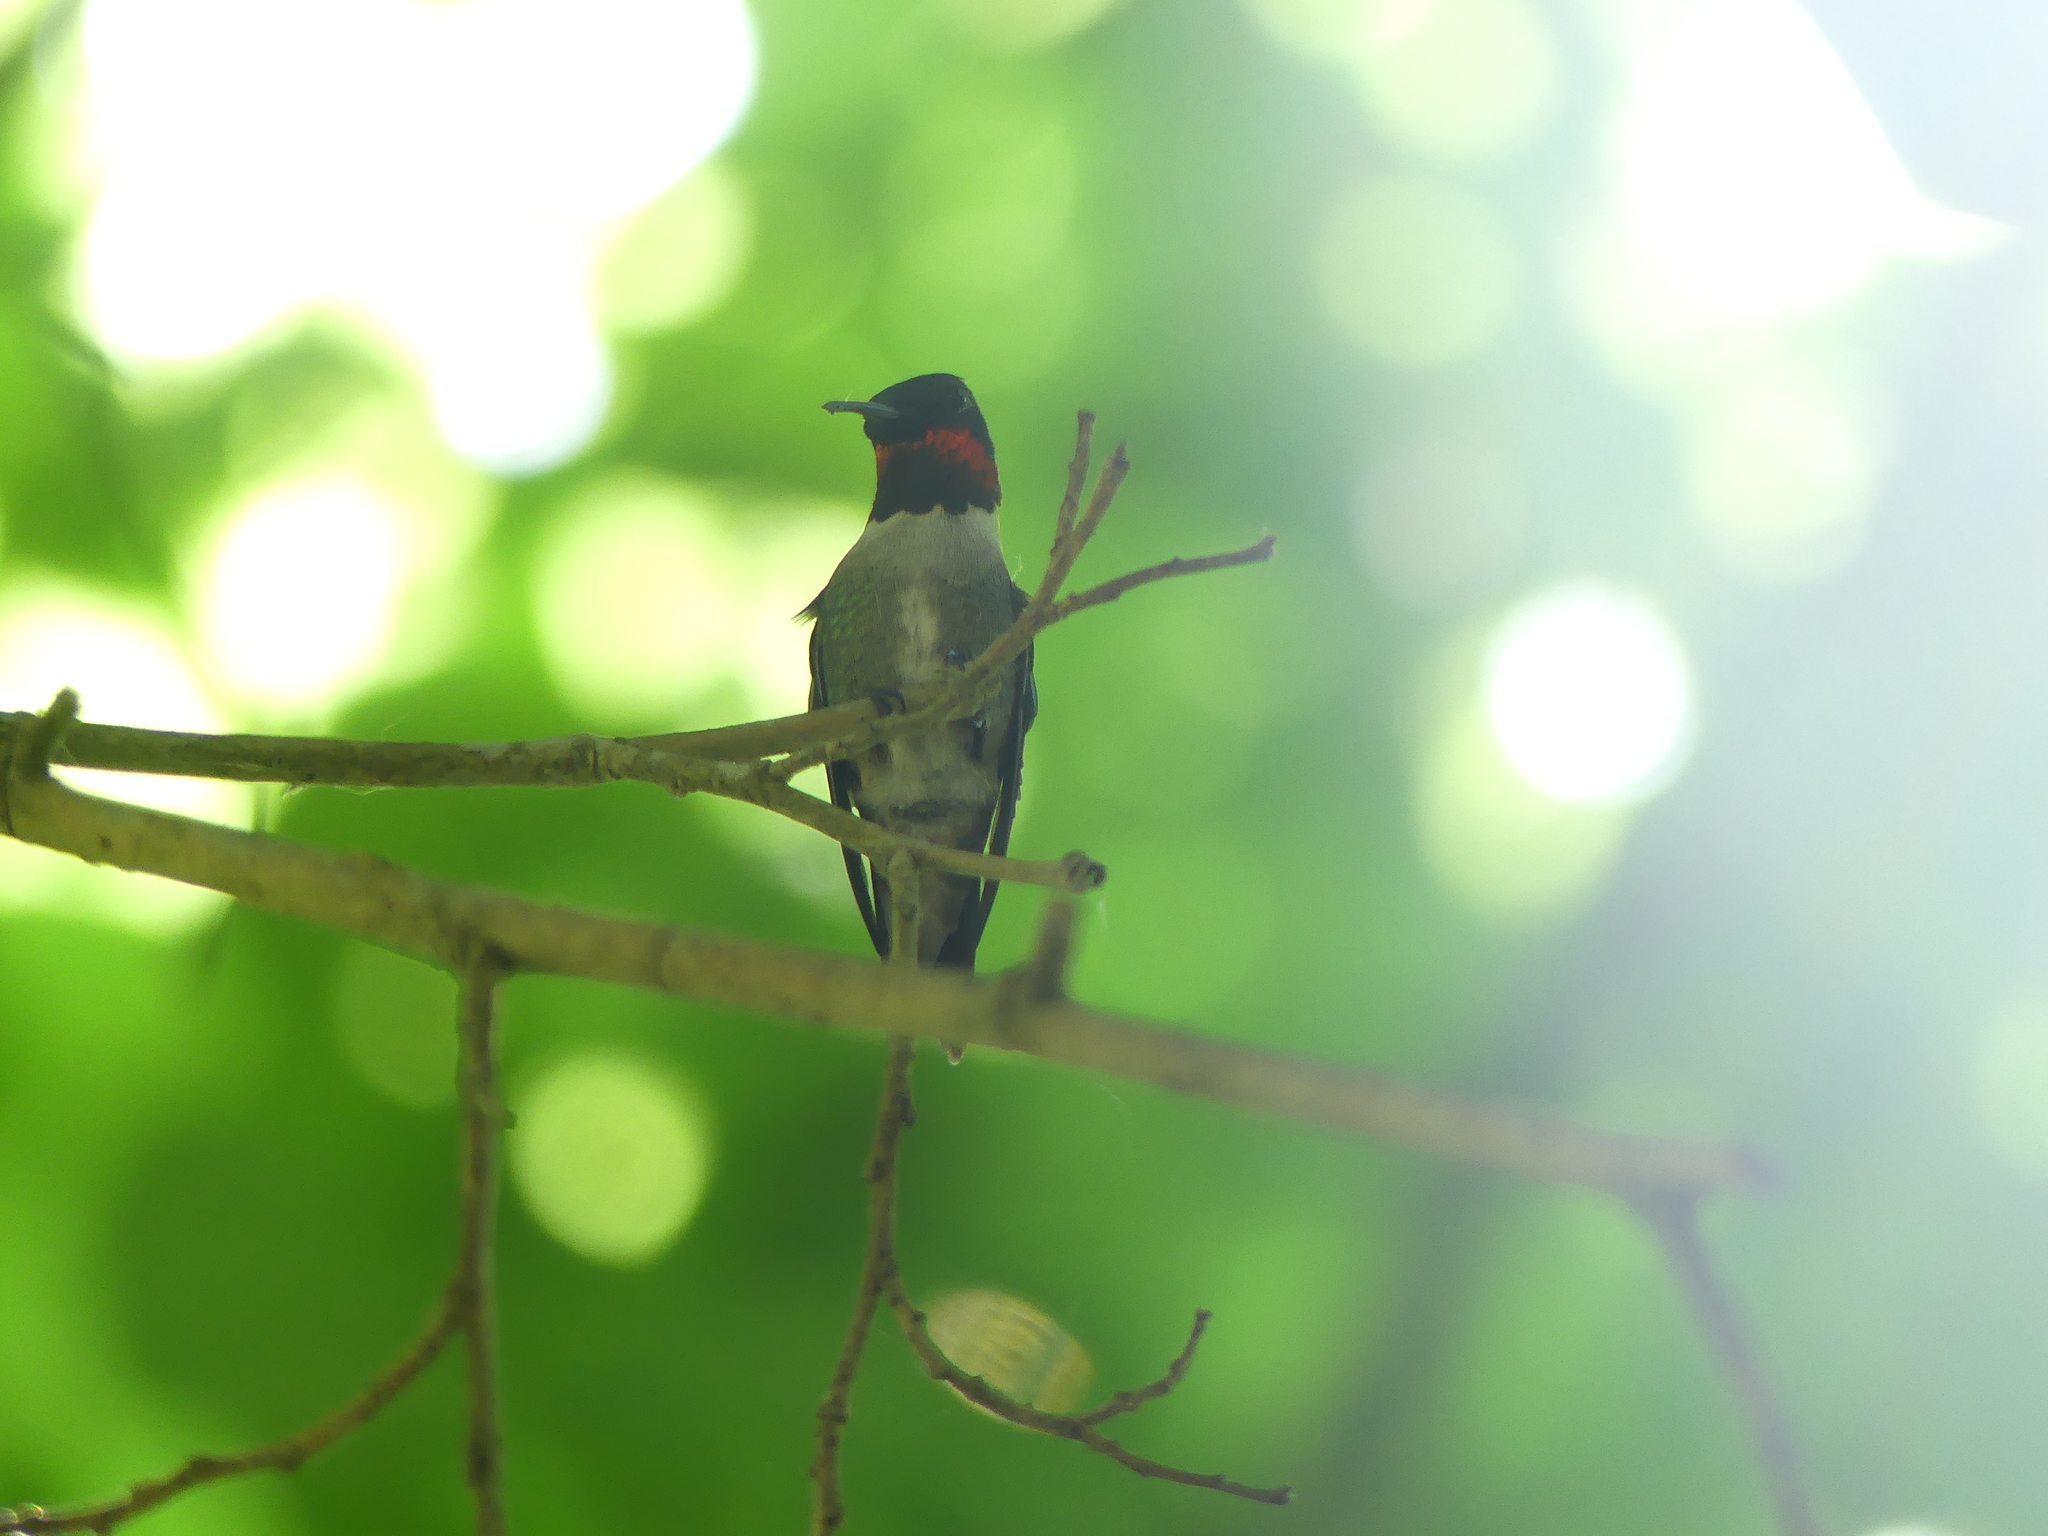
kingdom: Animalia
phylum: Chordata
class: Aves
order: Apodiformes
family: Trochilidae
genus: Archilochus
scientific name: Archilochus colubris
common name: Ruby-throated hummingbird
